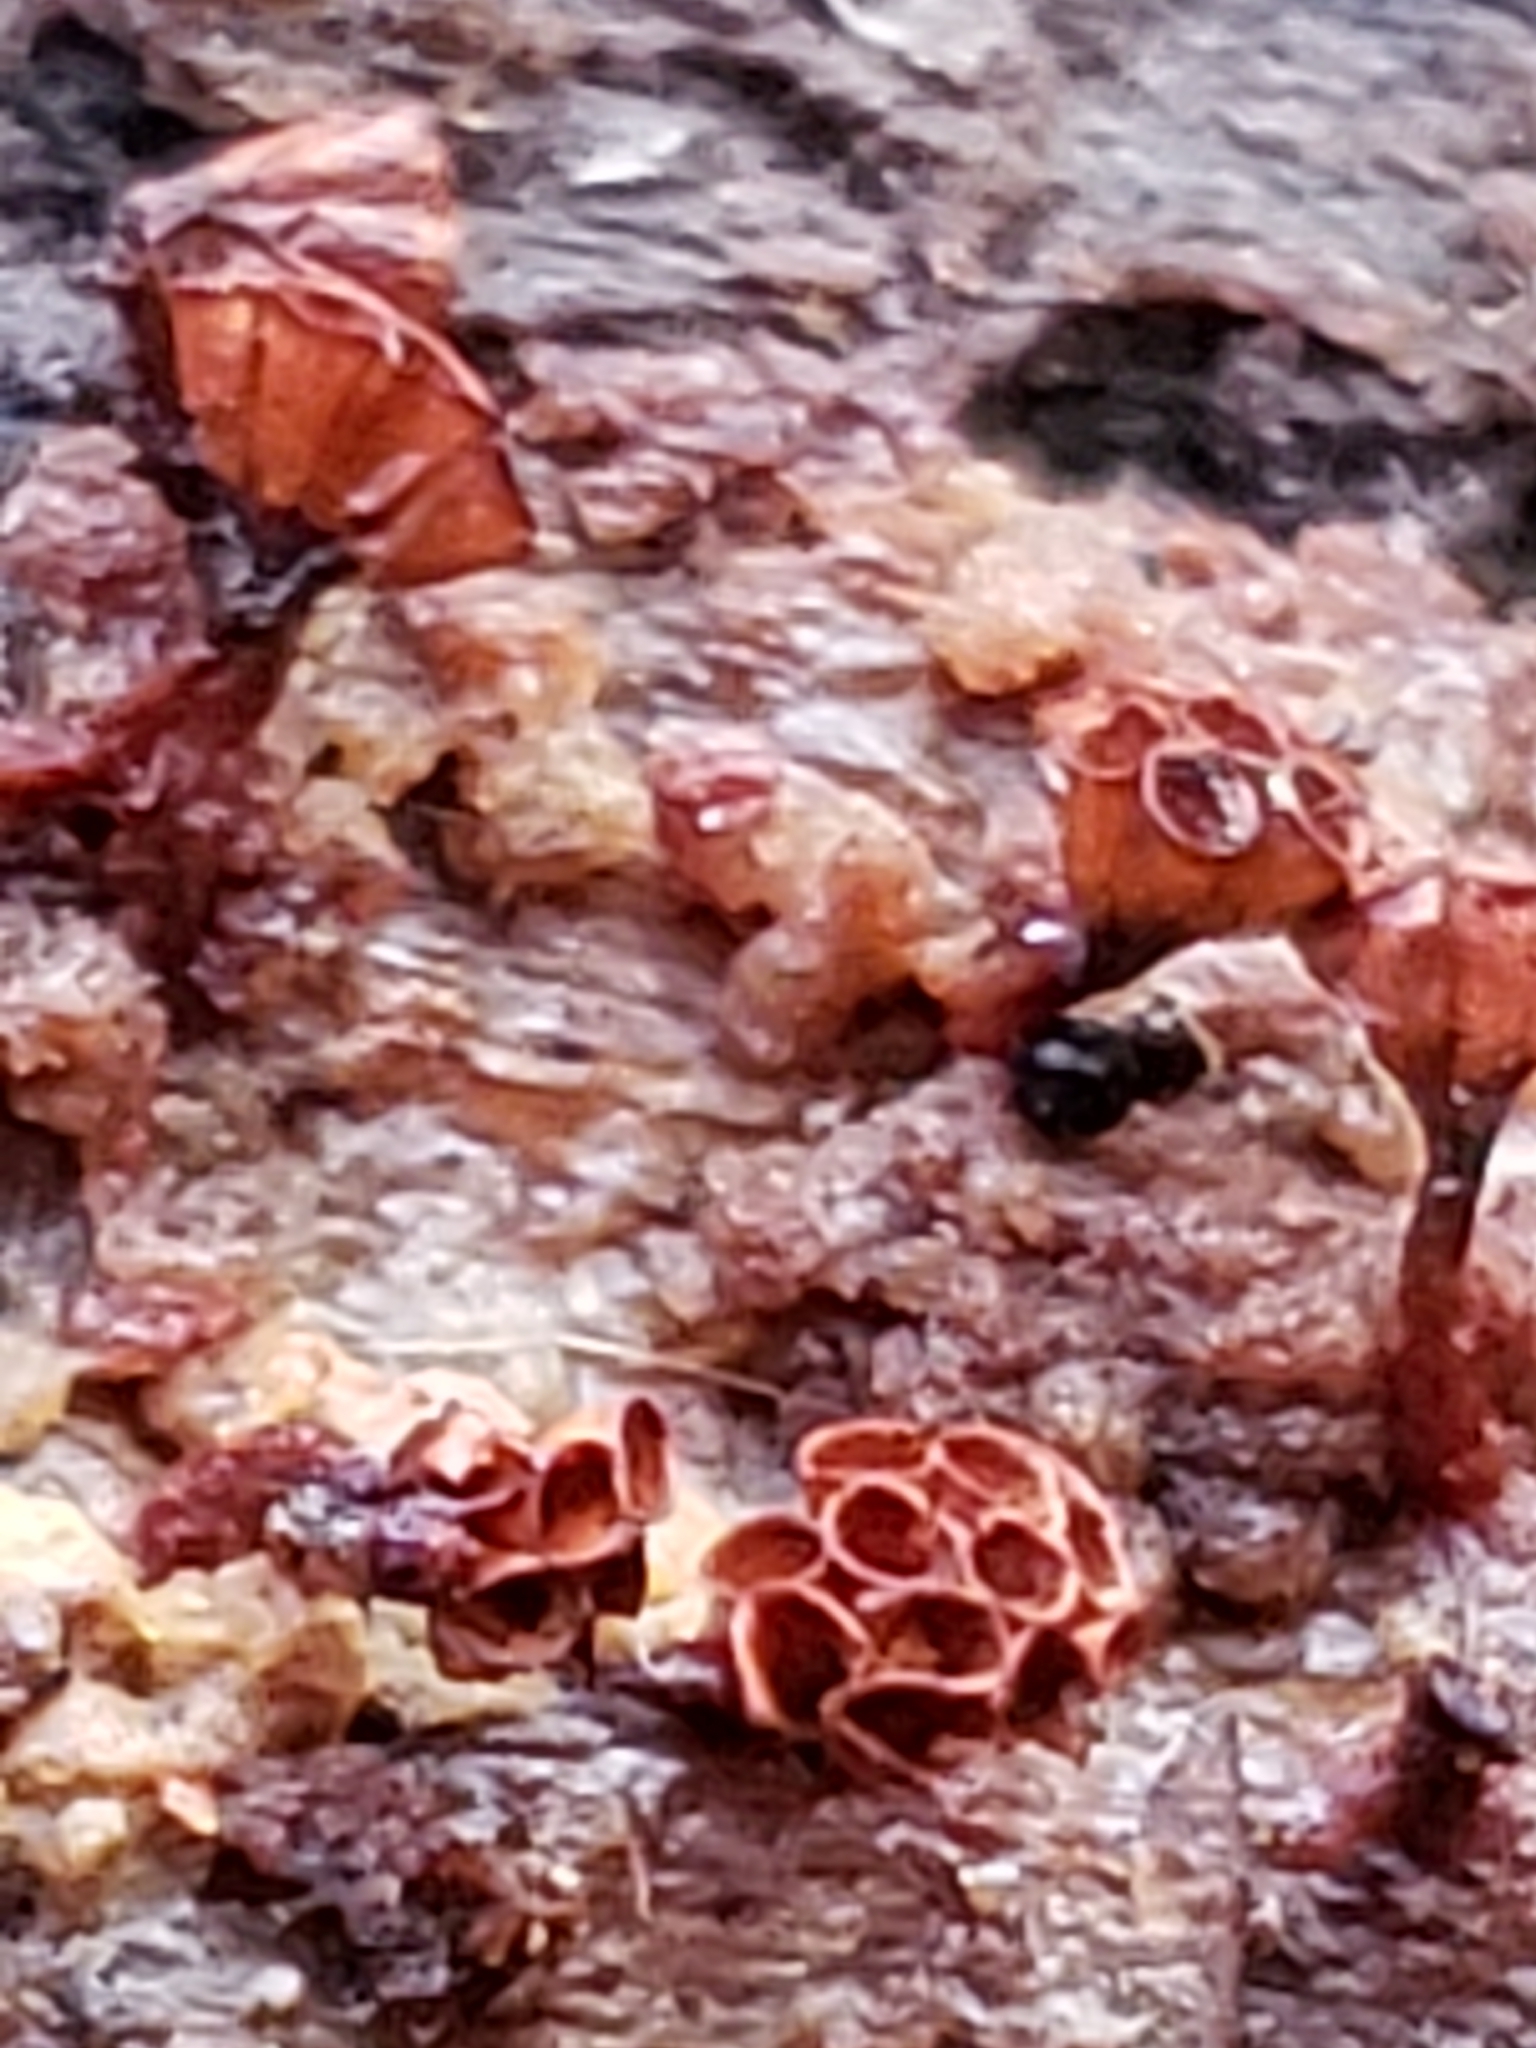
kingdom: Protozoa
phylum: Mycetozoa
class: Myxomycetes
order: Trichiales
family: Trichiaceae
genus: Metatrichia
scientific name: Metatrichia vesparia
